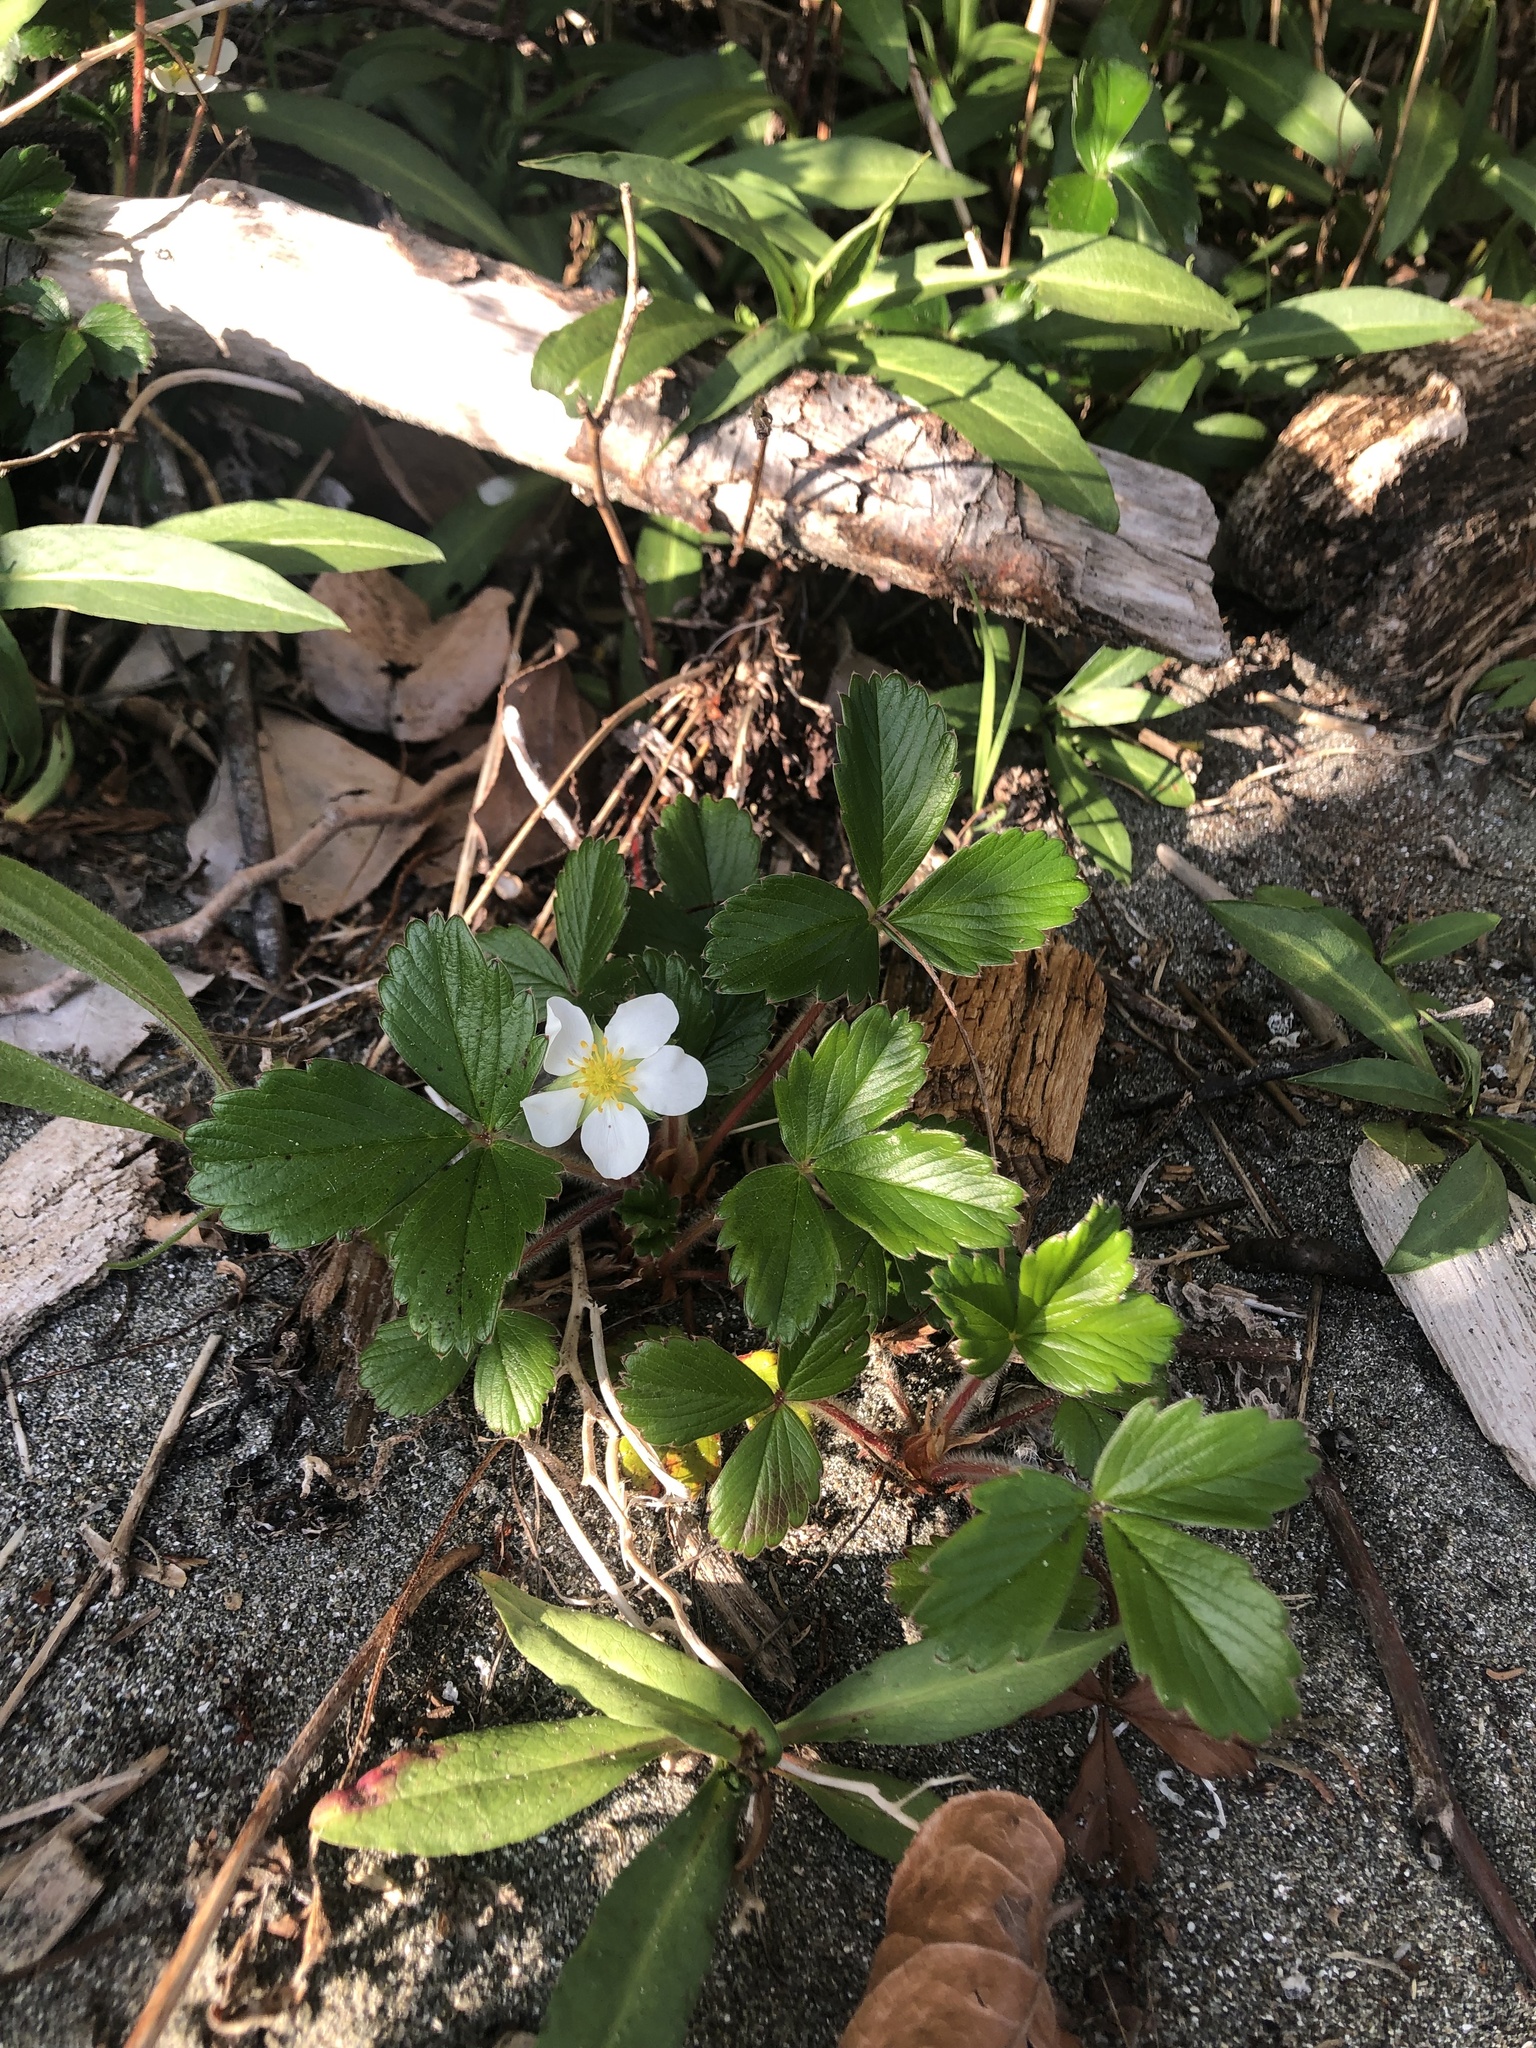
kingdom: Plantae
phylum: Tracheophyta
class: Magnoliopsida
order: Rosales
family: Rosaceae
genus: Fragaria
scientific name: Fragaria chiloensis
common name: Beach strawberry
